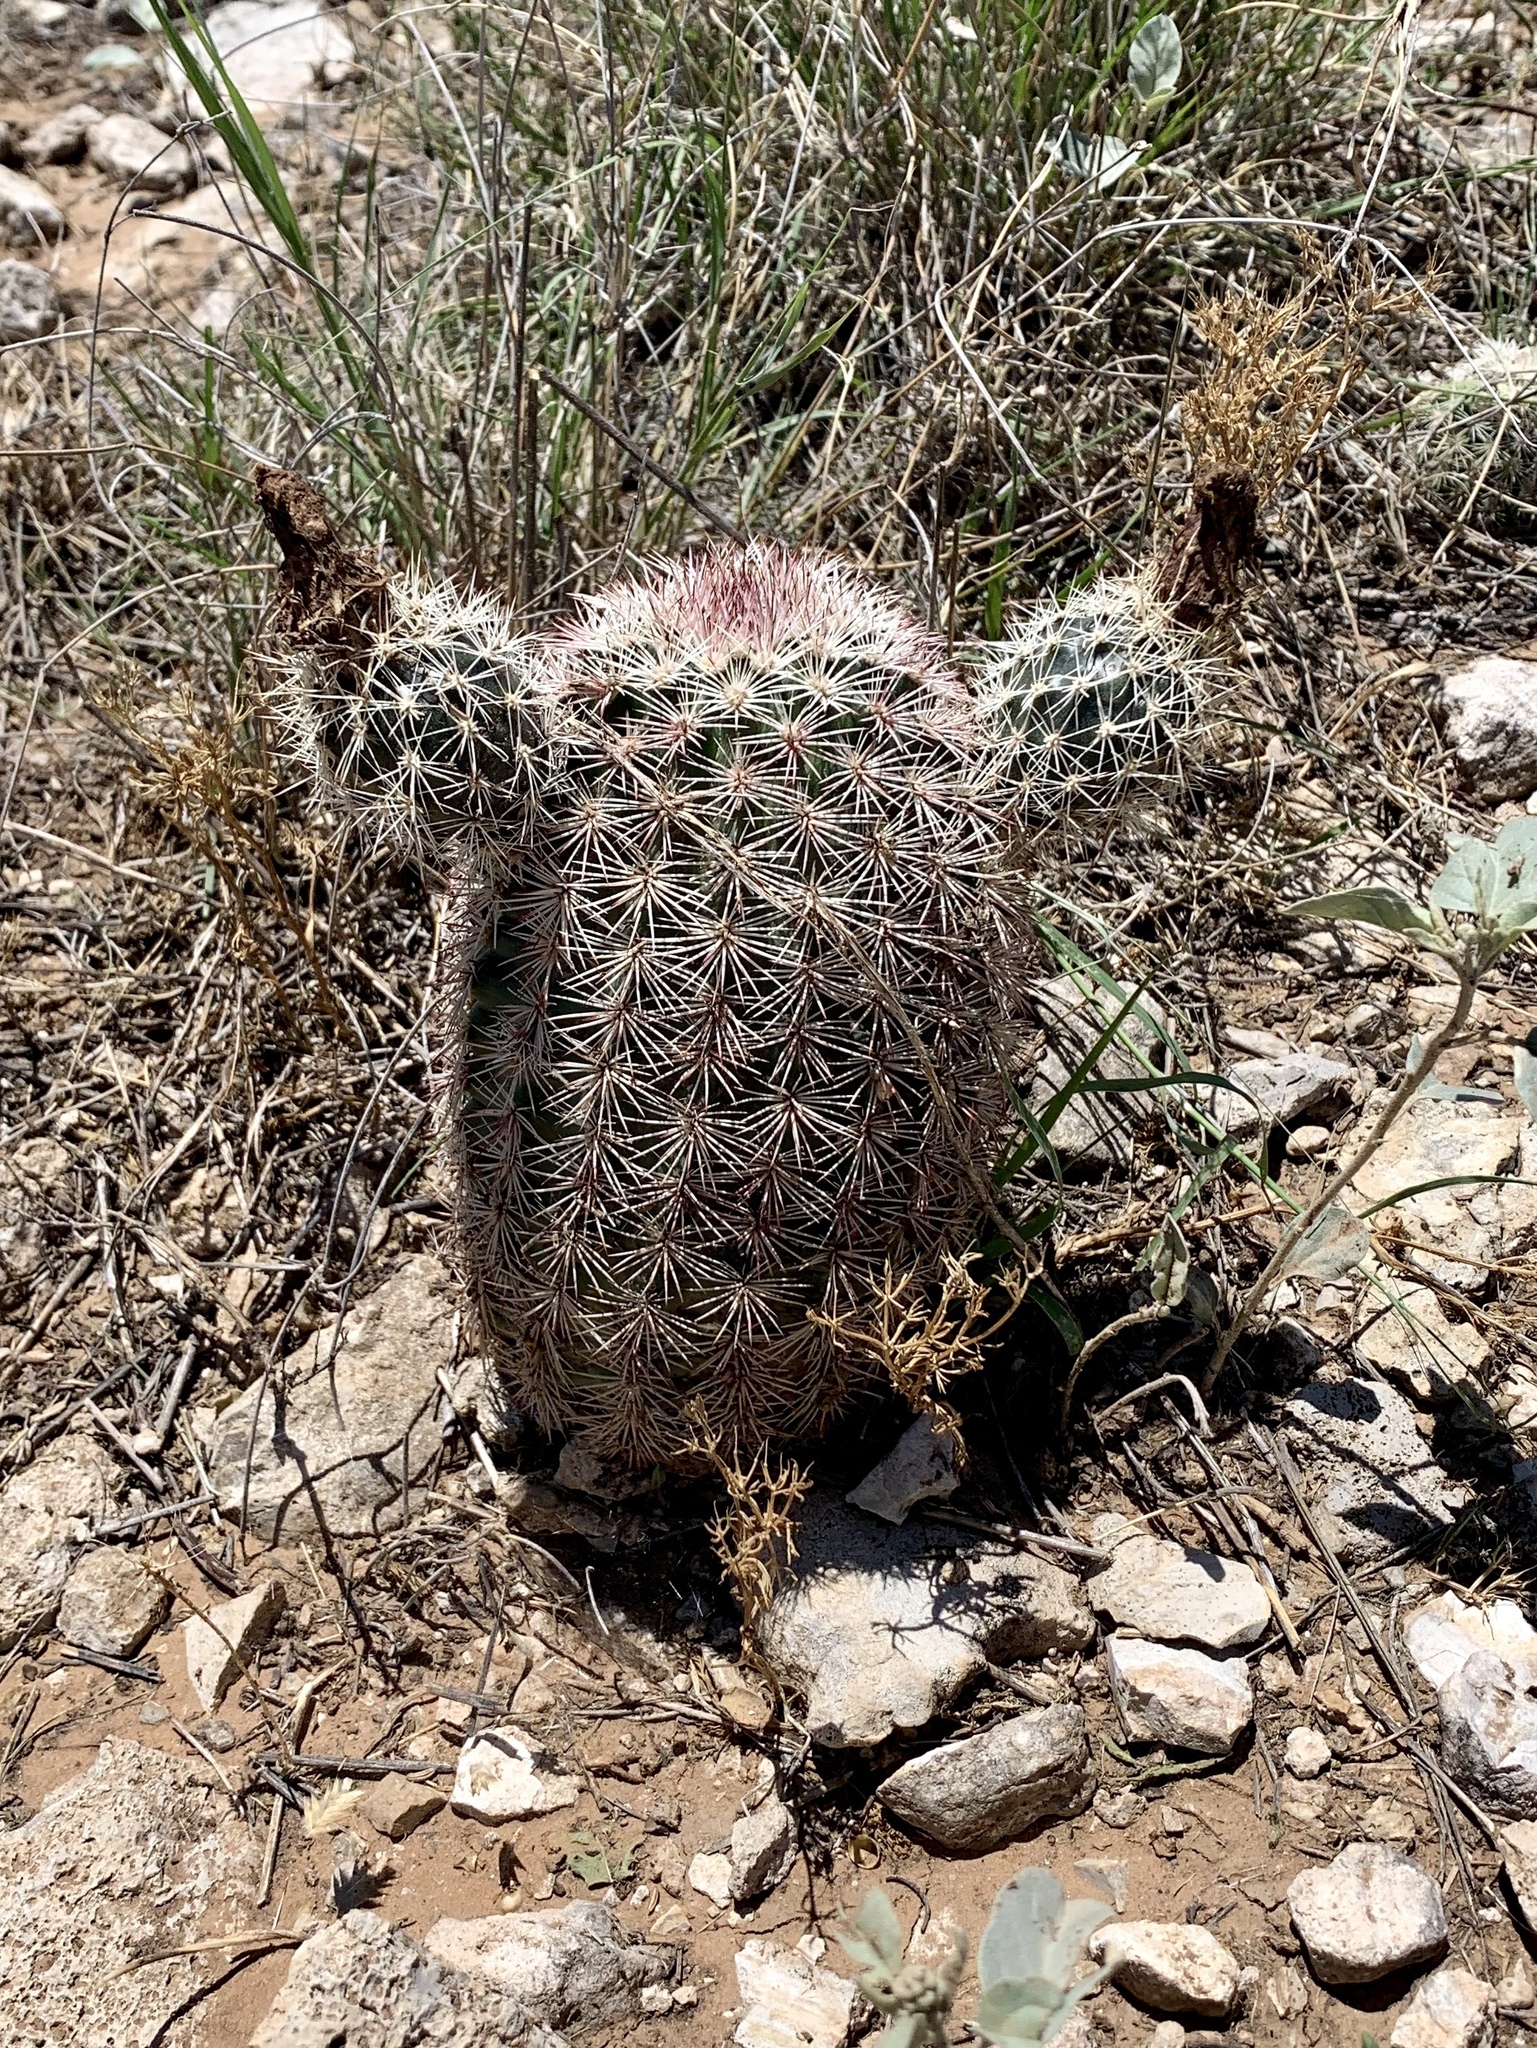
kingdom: Plantae
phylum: Tracheophyta
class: Magnoliopsida
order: Caryophyllales
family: Cactaceae
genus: Echinocereus
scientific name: Echinocereus dasyacanthus
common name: Spiny hedgehog cactus
